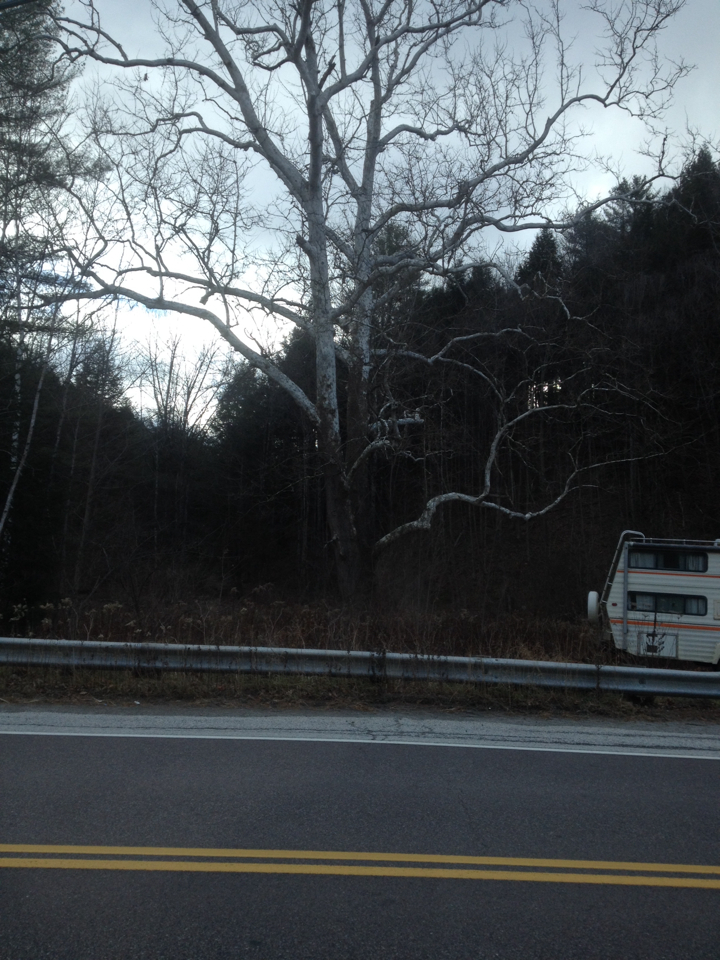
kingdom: Plantae
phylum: Tracheophyta
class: Magnoliopsida
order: Proteales
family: Platanaceae
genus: Platanus
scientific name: Platanus occidentalis
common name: American sycamore
